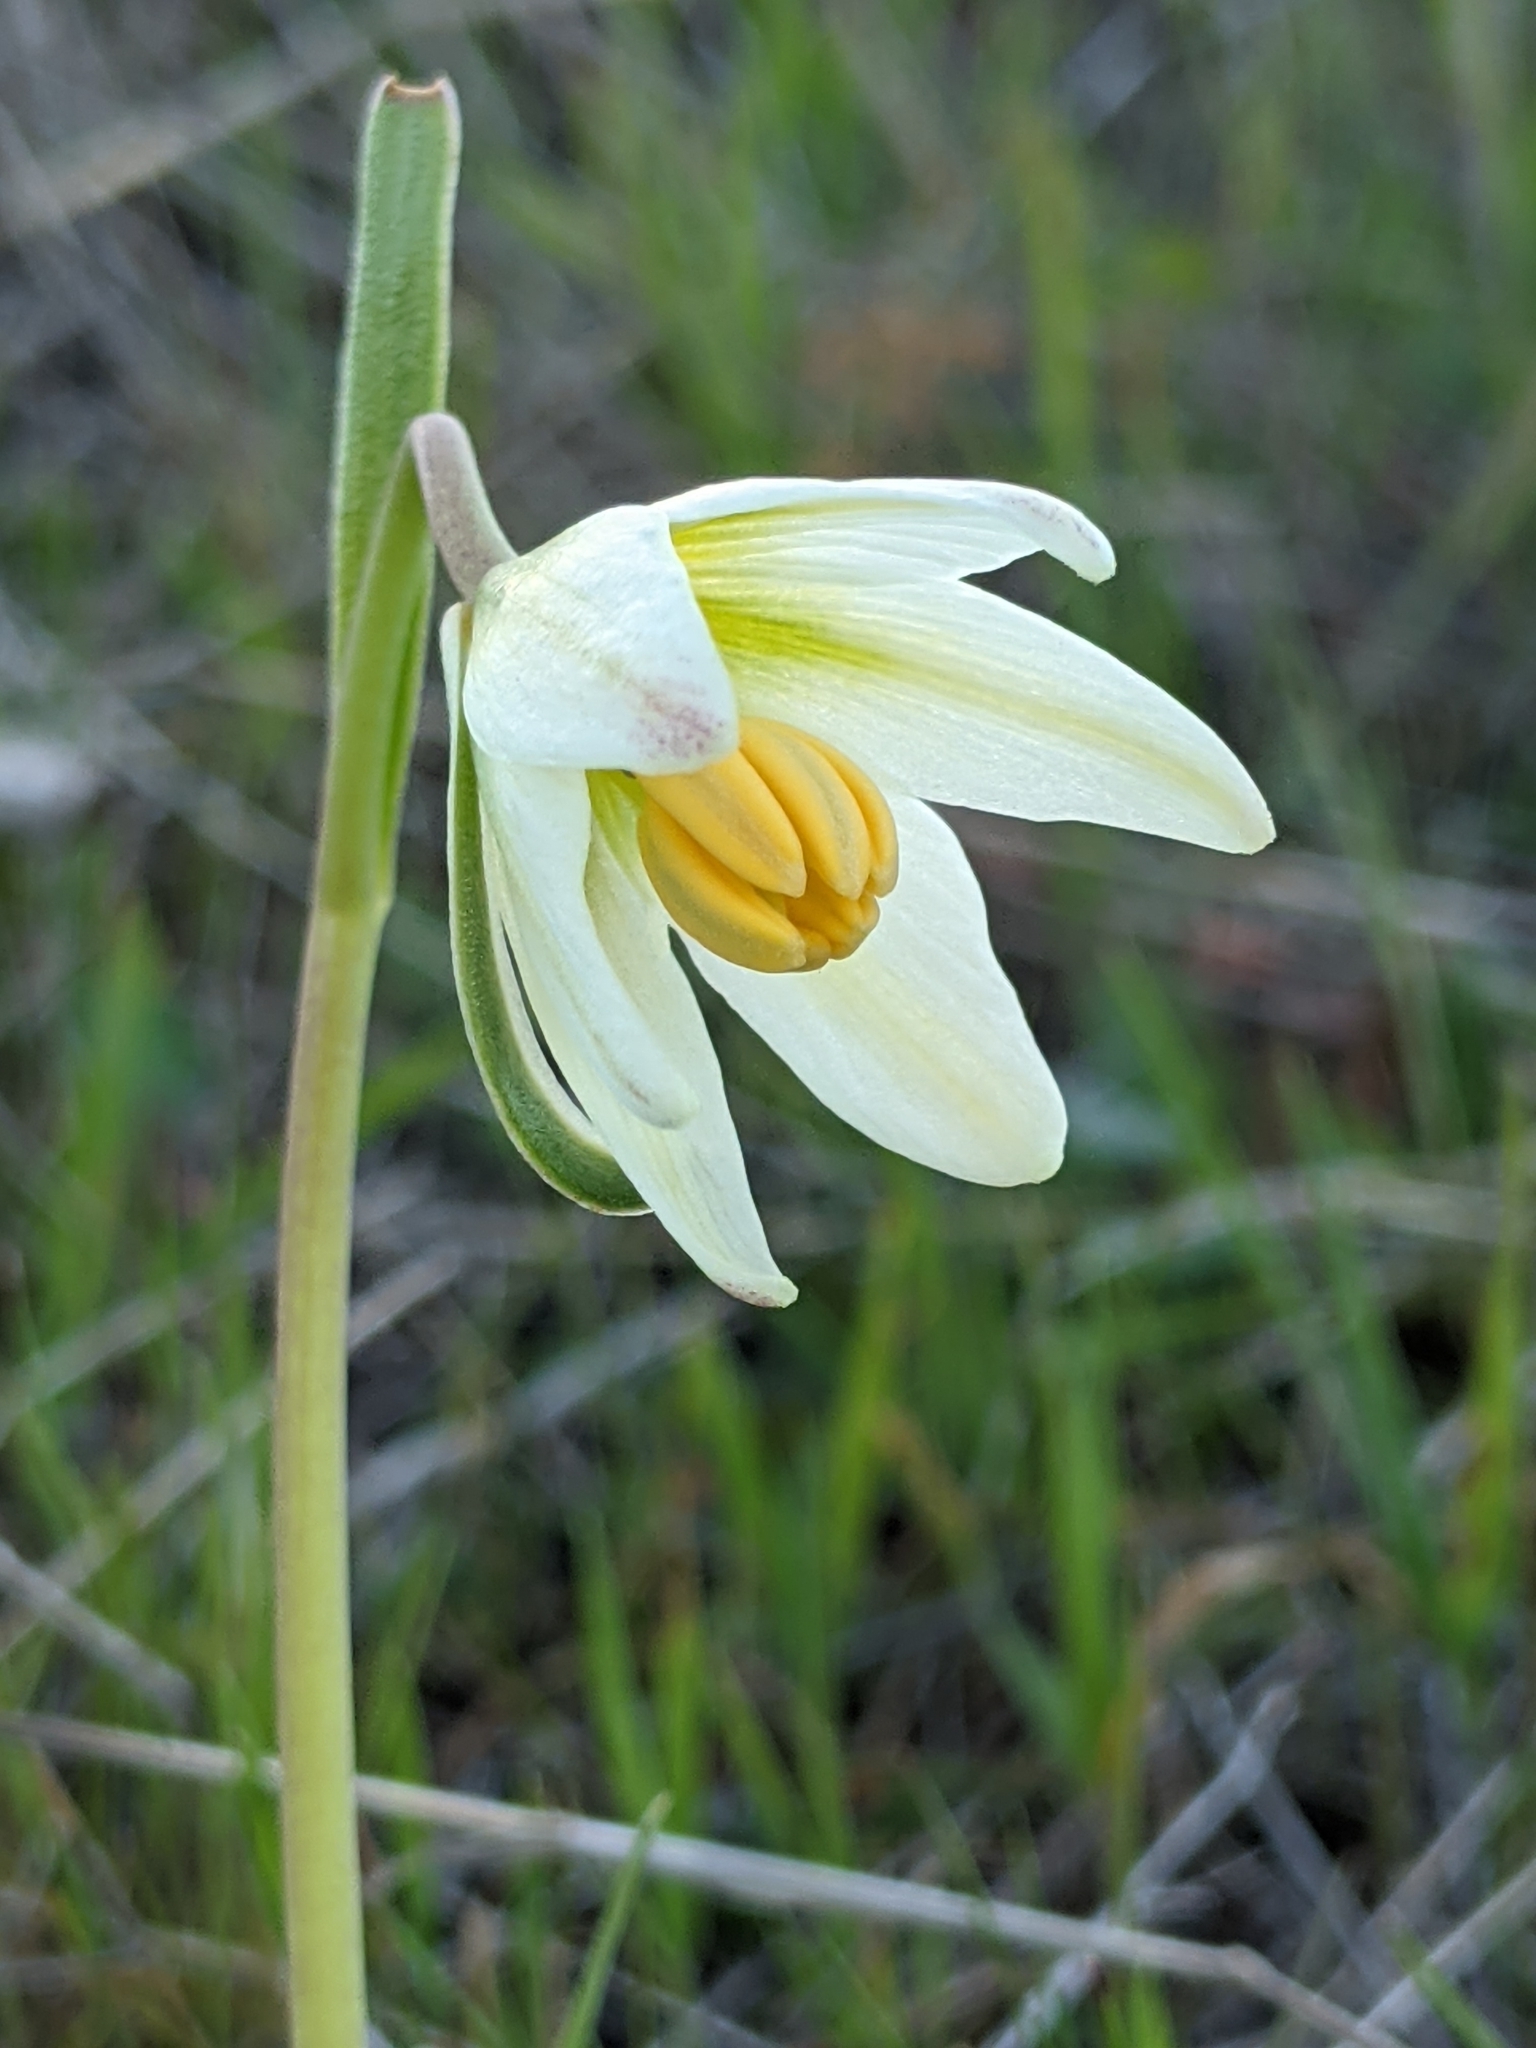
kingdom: Plantae
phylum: Tracheophyta
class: Liliopsida
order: Liliales
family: Liliaceae
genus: Fritillaria
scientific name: Fritillaria liliacea
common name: Fragrant fritillary
